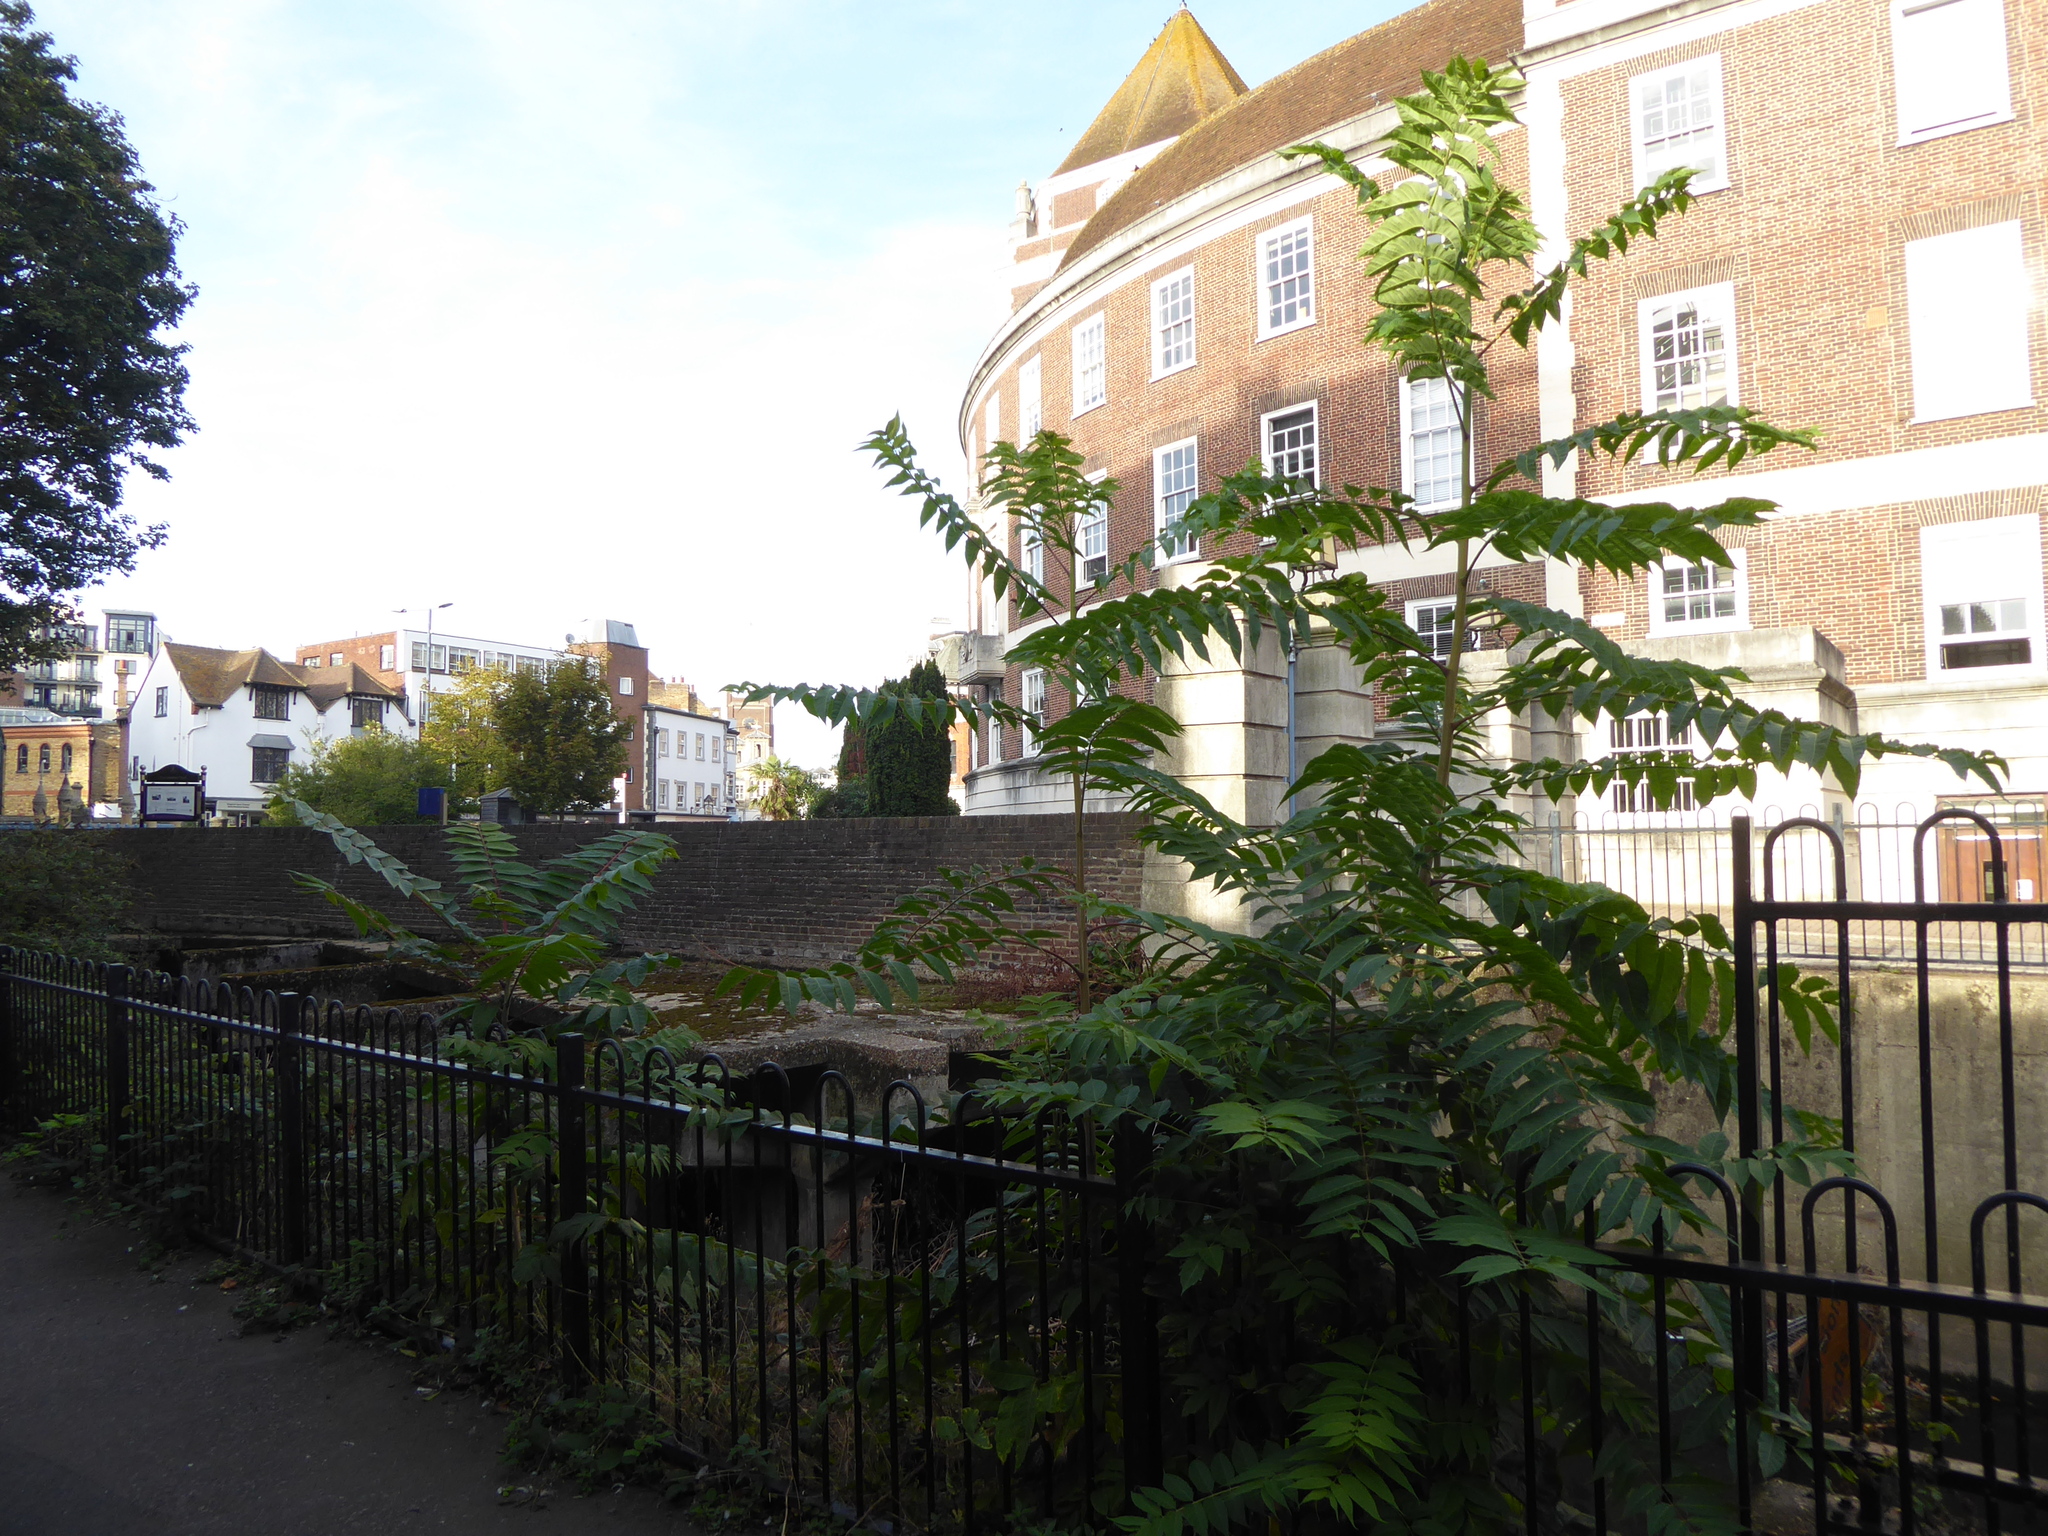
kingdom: Plantae
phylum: Tracheophyta
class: Magnoliopsida
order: Sapindales
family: Simaroubaceae
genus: Ailanthus
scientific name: Ailanthus altissima
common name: Tree-of-heaven
